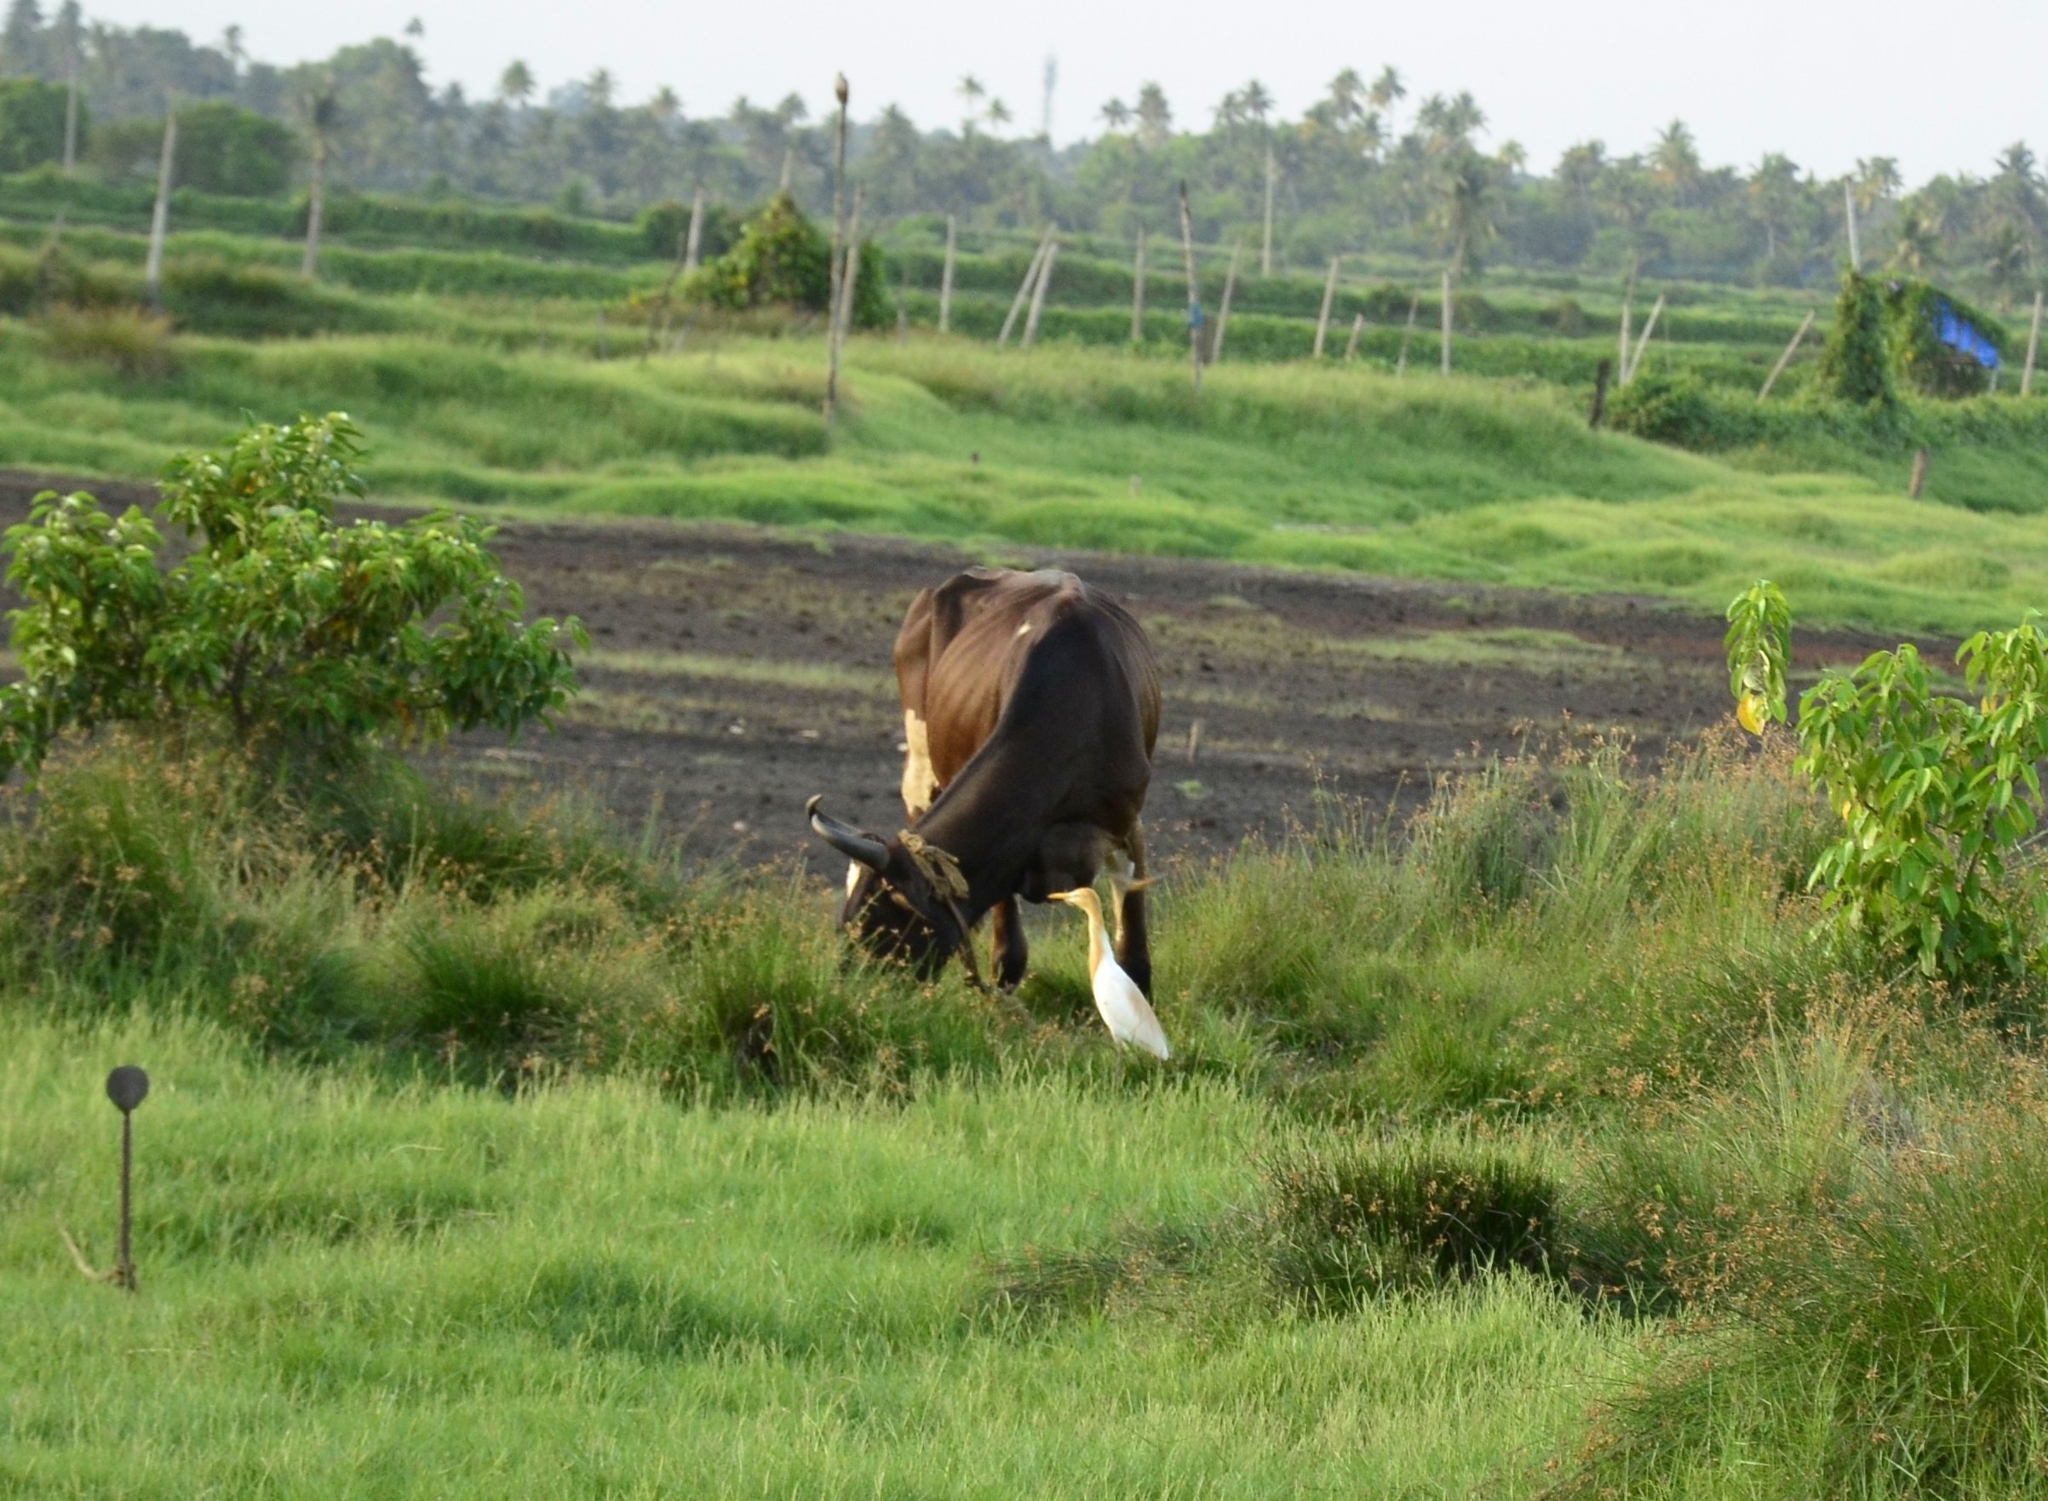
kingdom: Animalia
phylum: Chordata
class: Aves
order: Pelecaniformes
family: Ardeidae
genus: Bubulcus
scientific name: Bubulcus coromandus
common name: Eastern cattle egret
